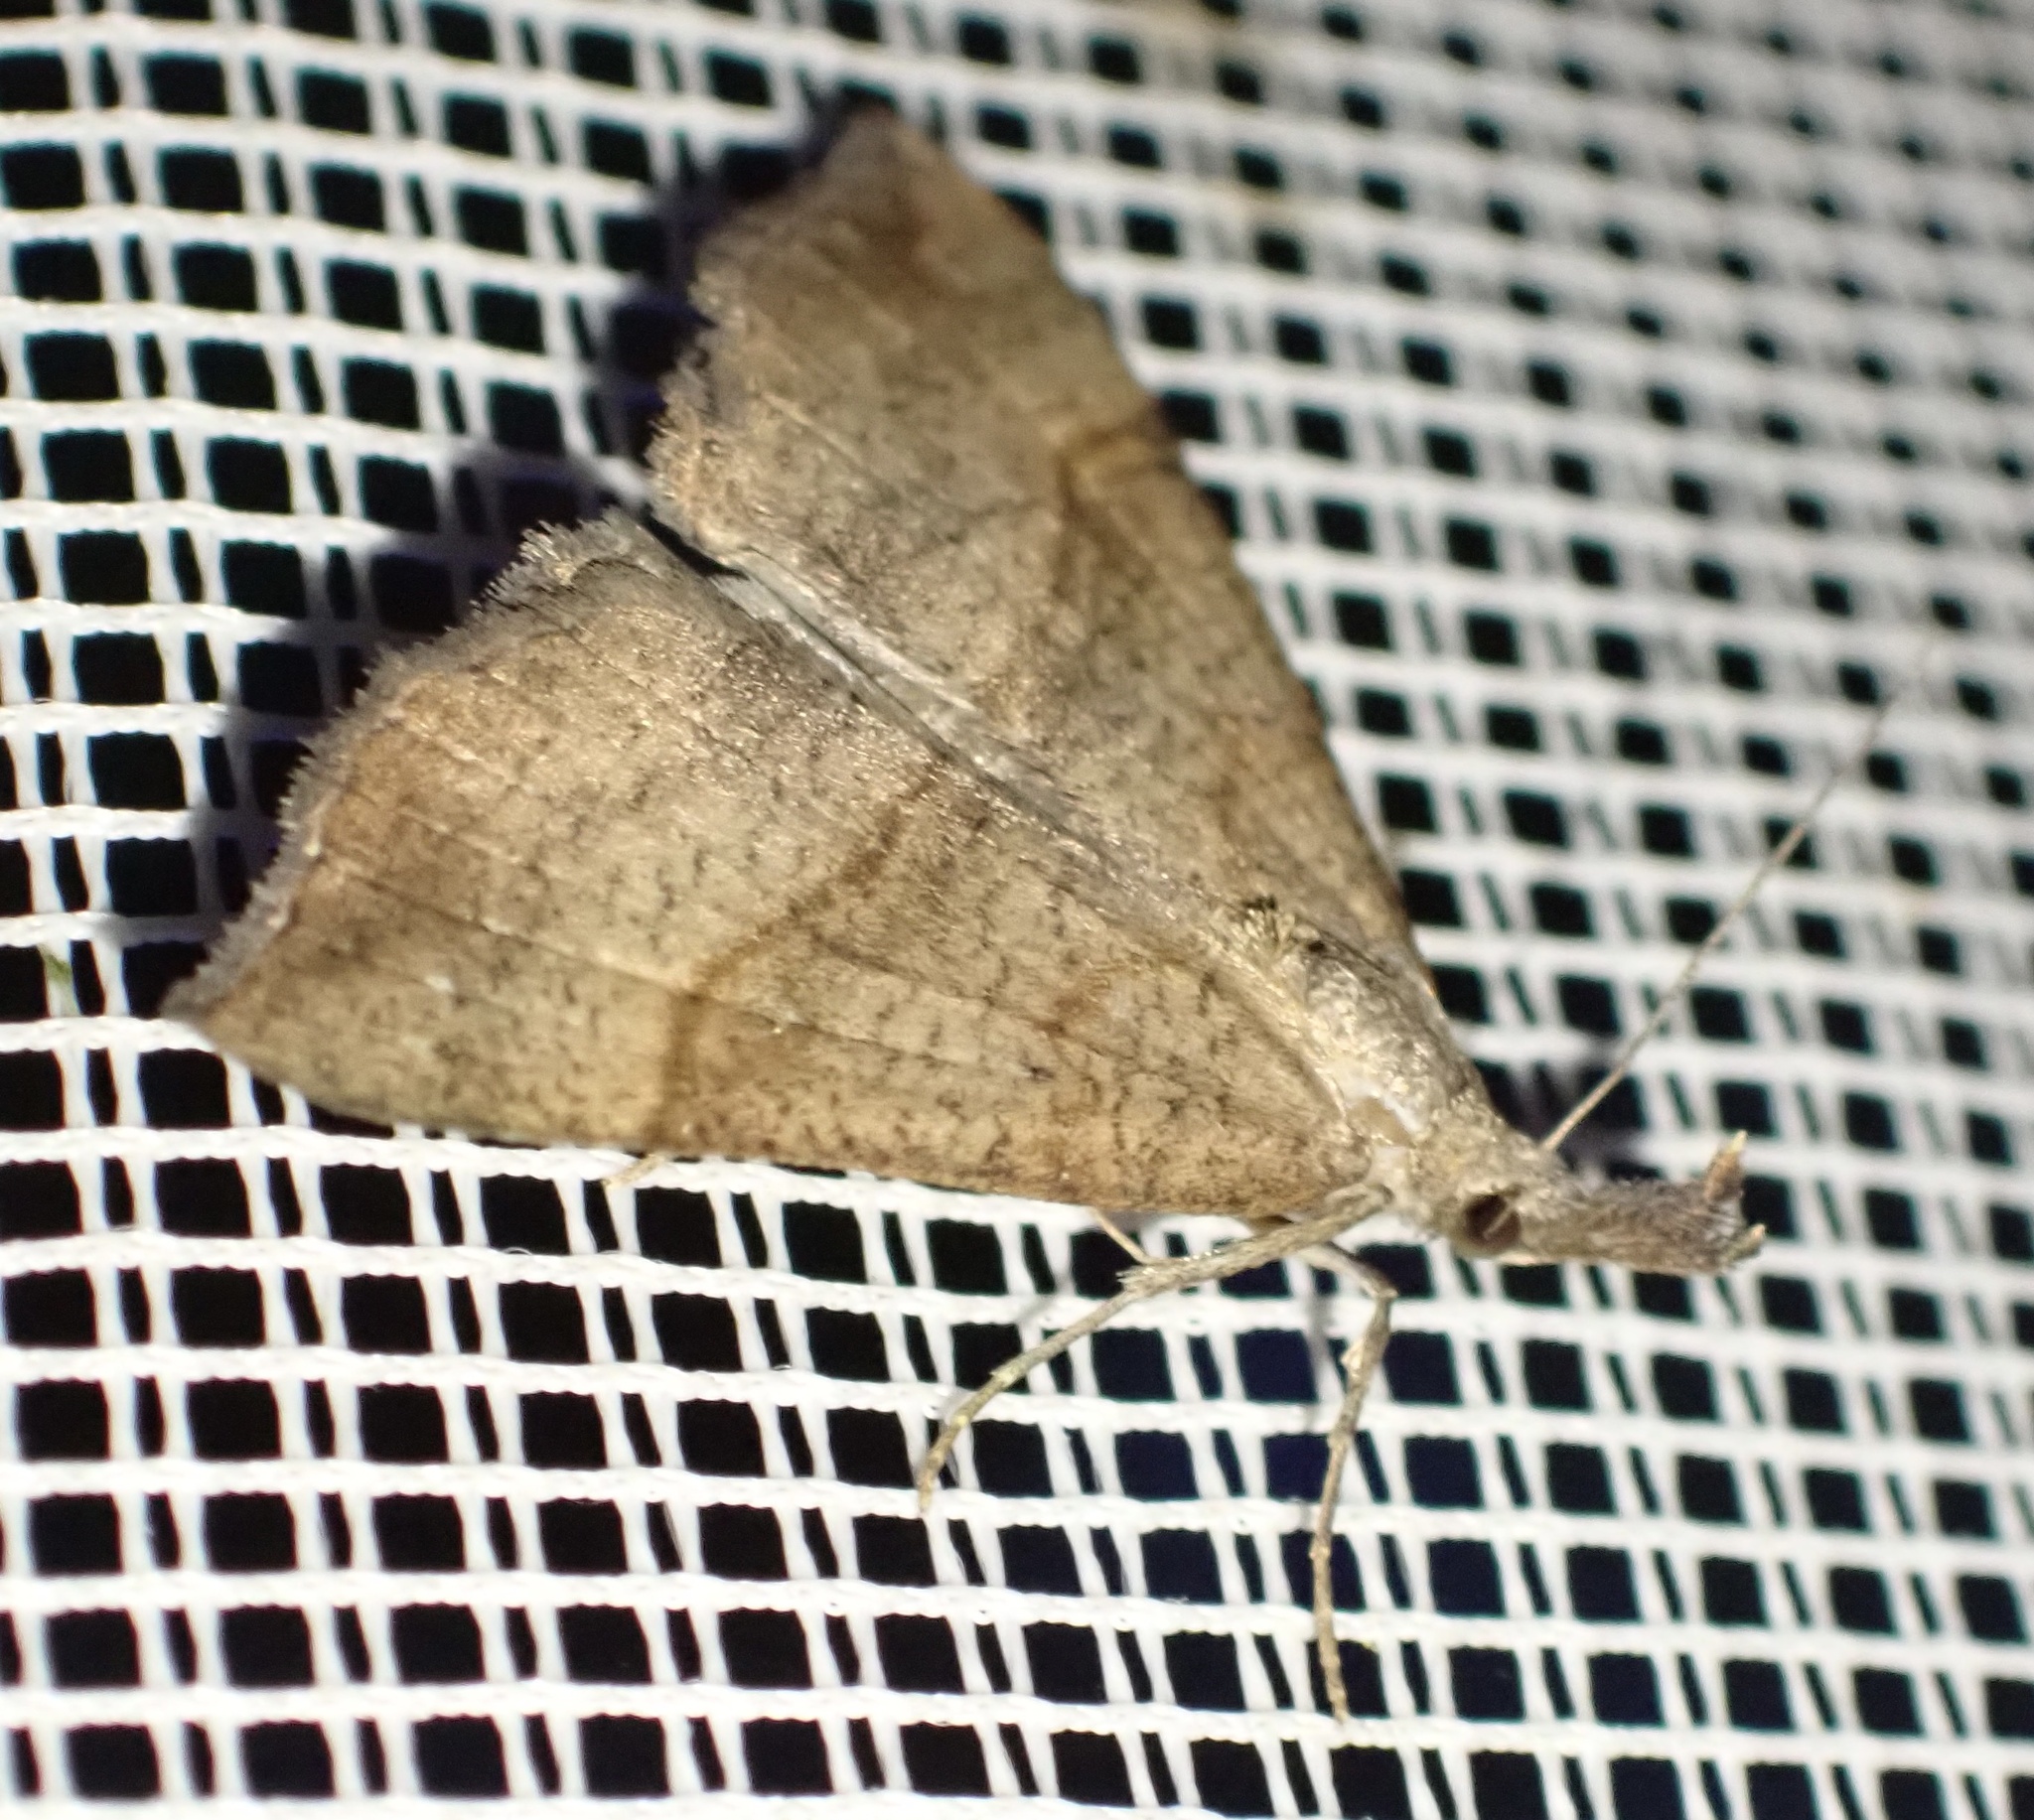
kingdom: Animalia
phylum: Arthropoda
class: Insecta
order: Lepidoptera
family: Erebidae
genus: Hypena
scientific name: Hypena proboscidalis
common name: Snout
